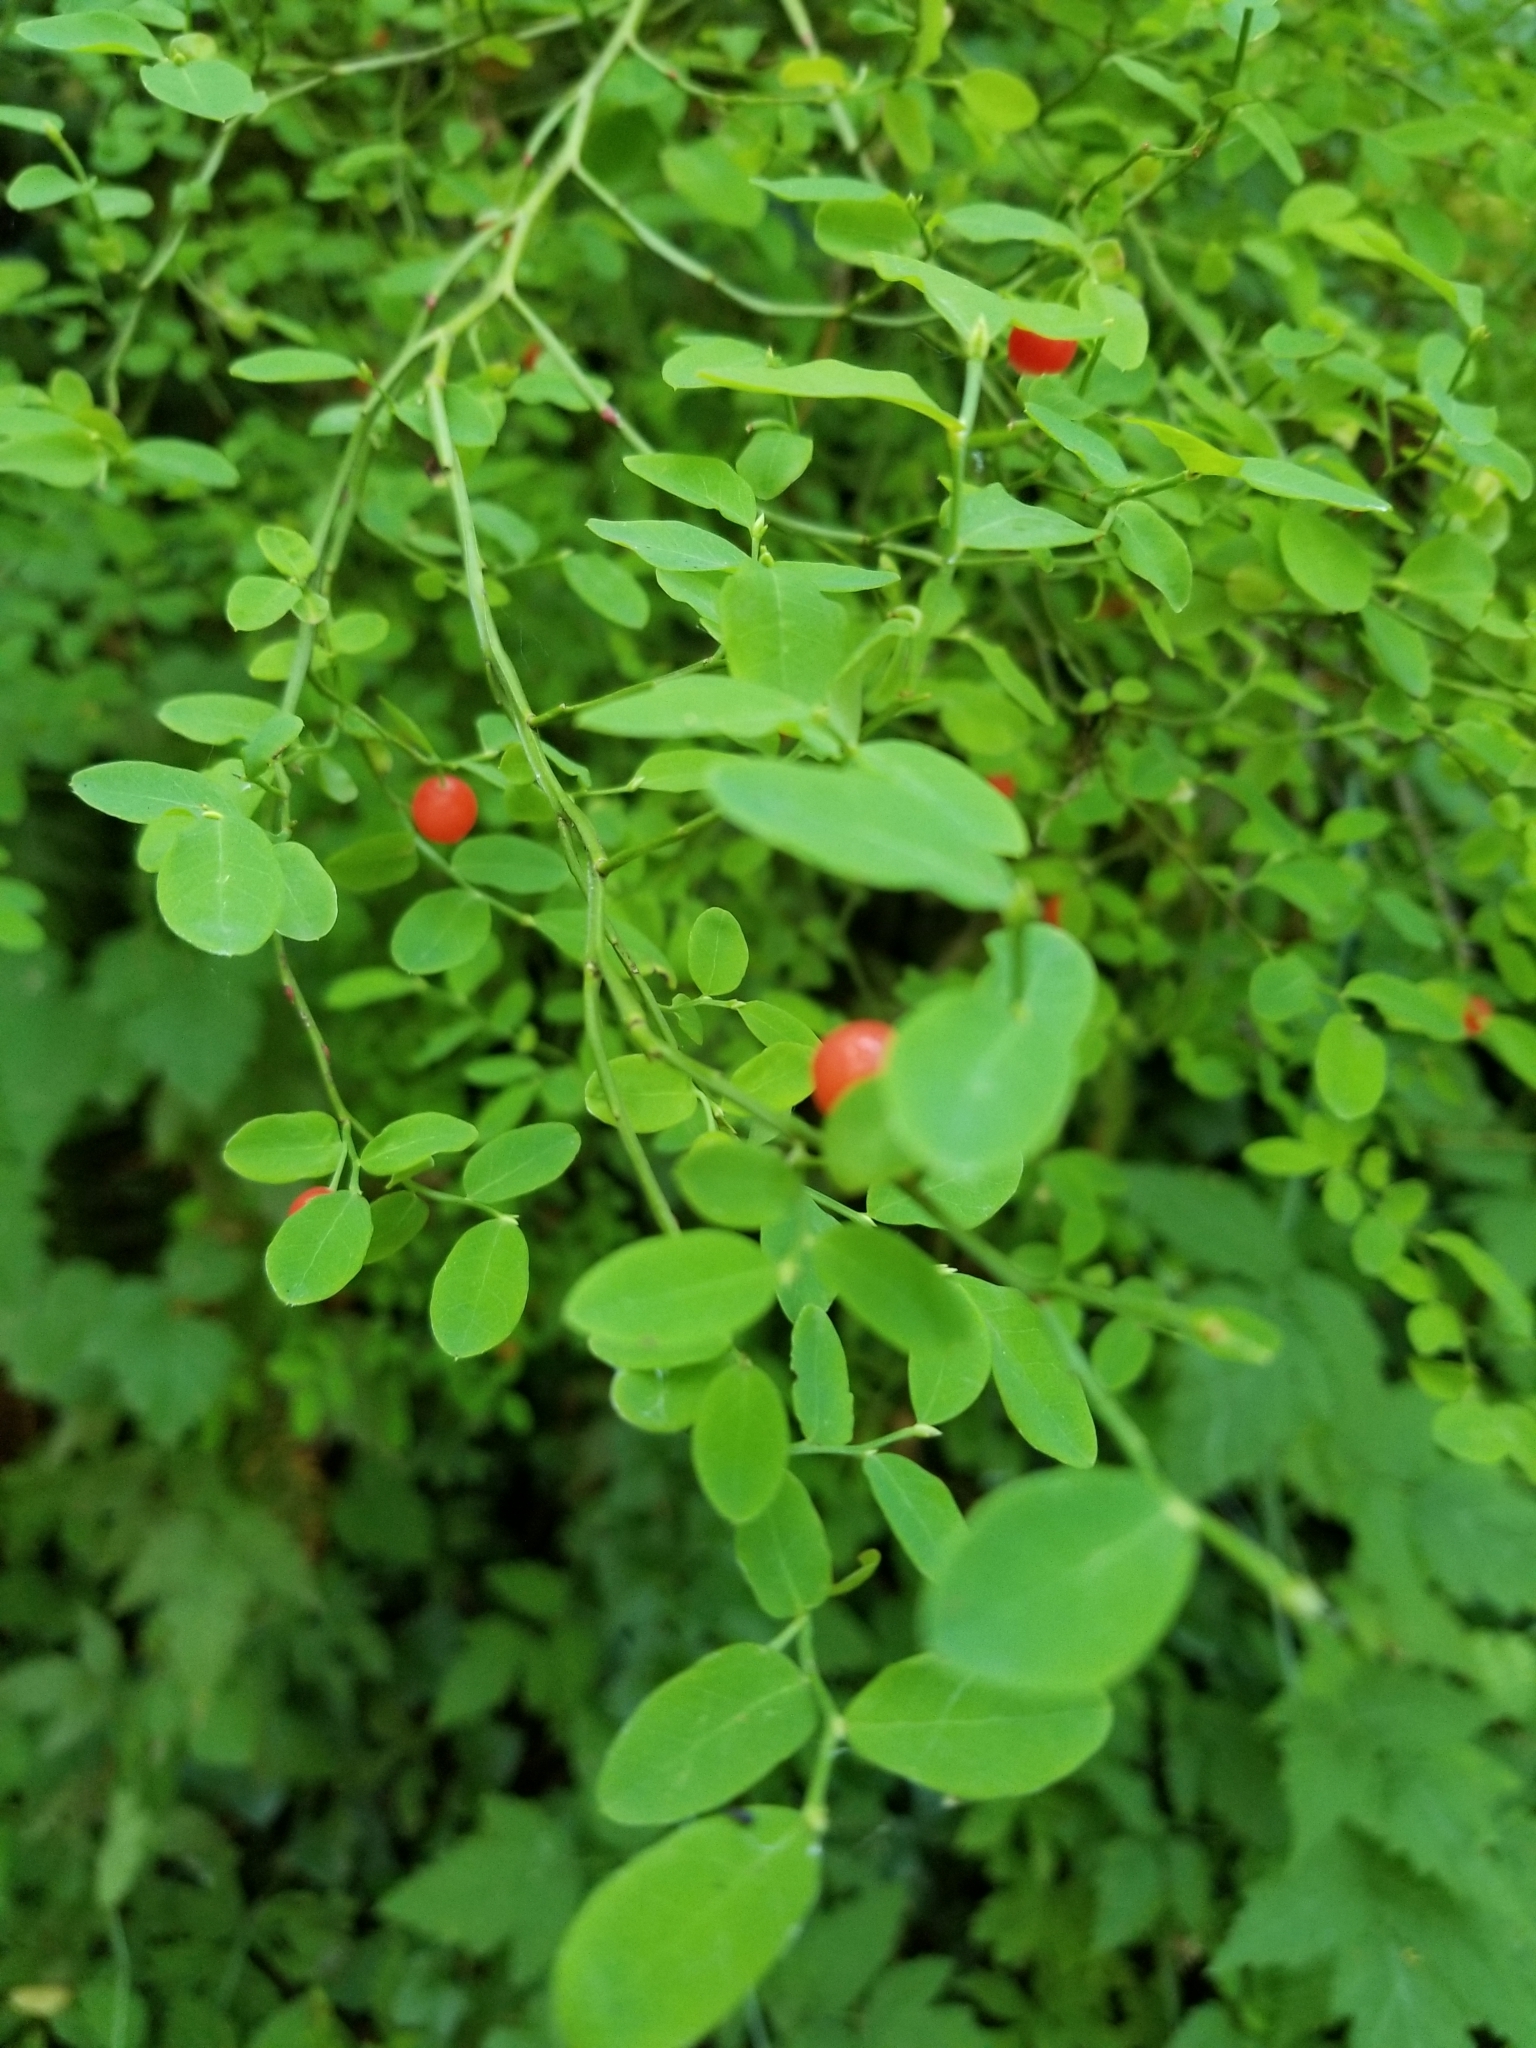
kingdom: Plantae
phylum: Tracheophyta
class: Magnoliopsida
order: Ericales
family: Ericaceae
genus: Vaccinium
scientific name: Vaccinium parvifolium
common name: Red-huckleberry
